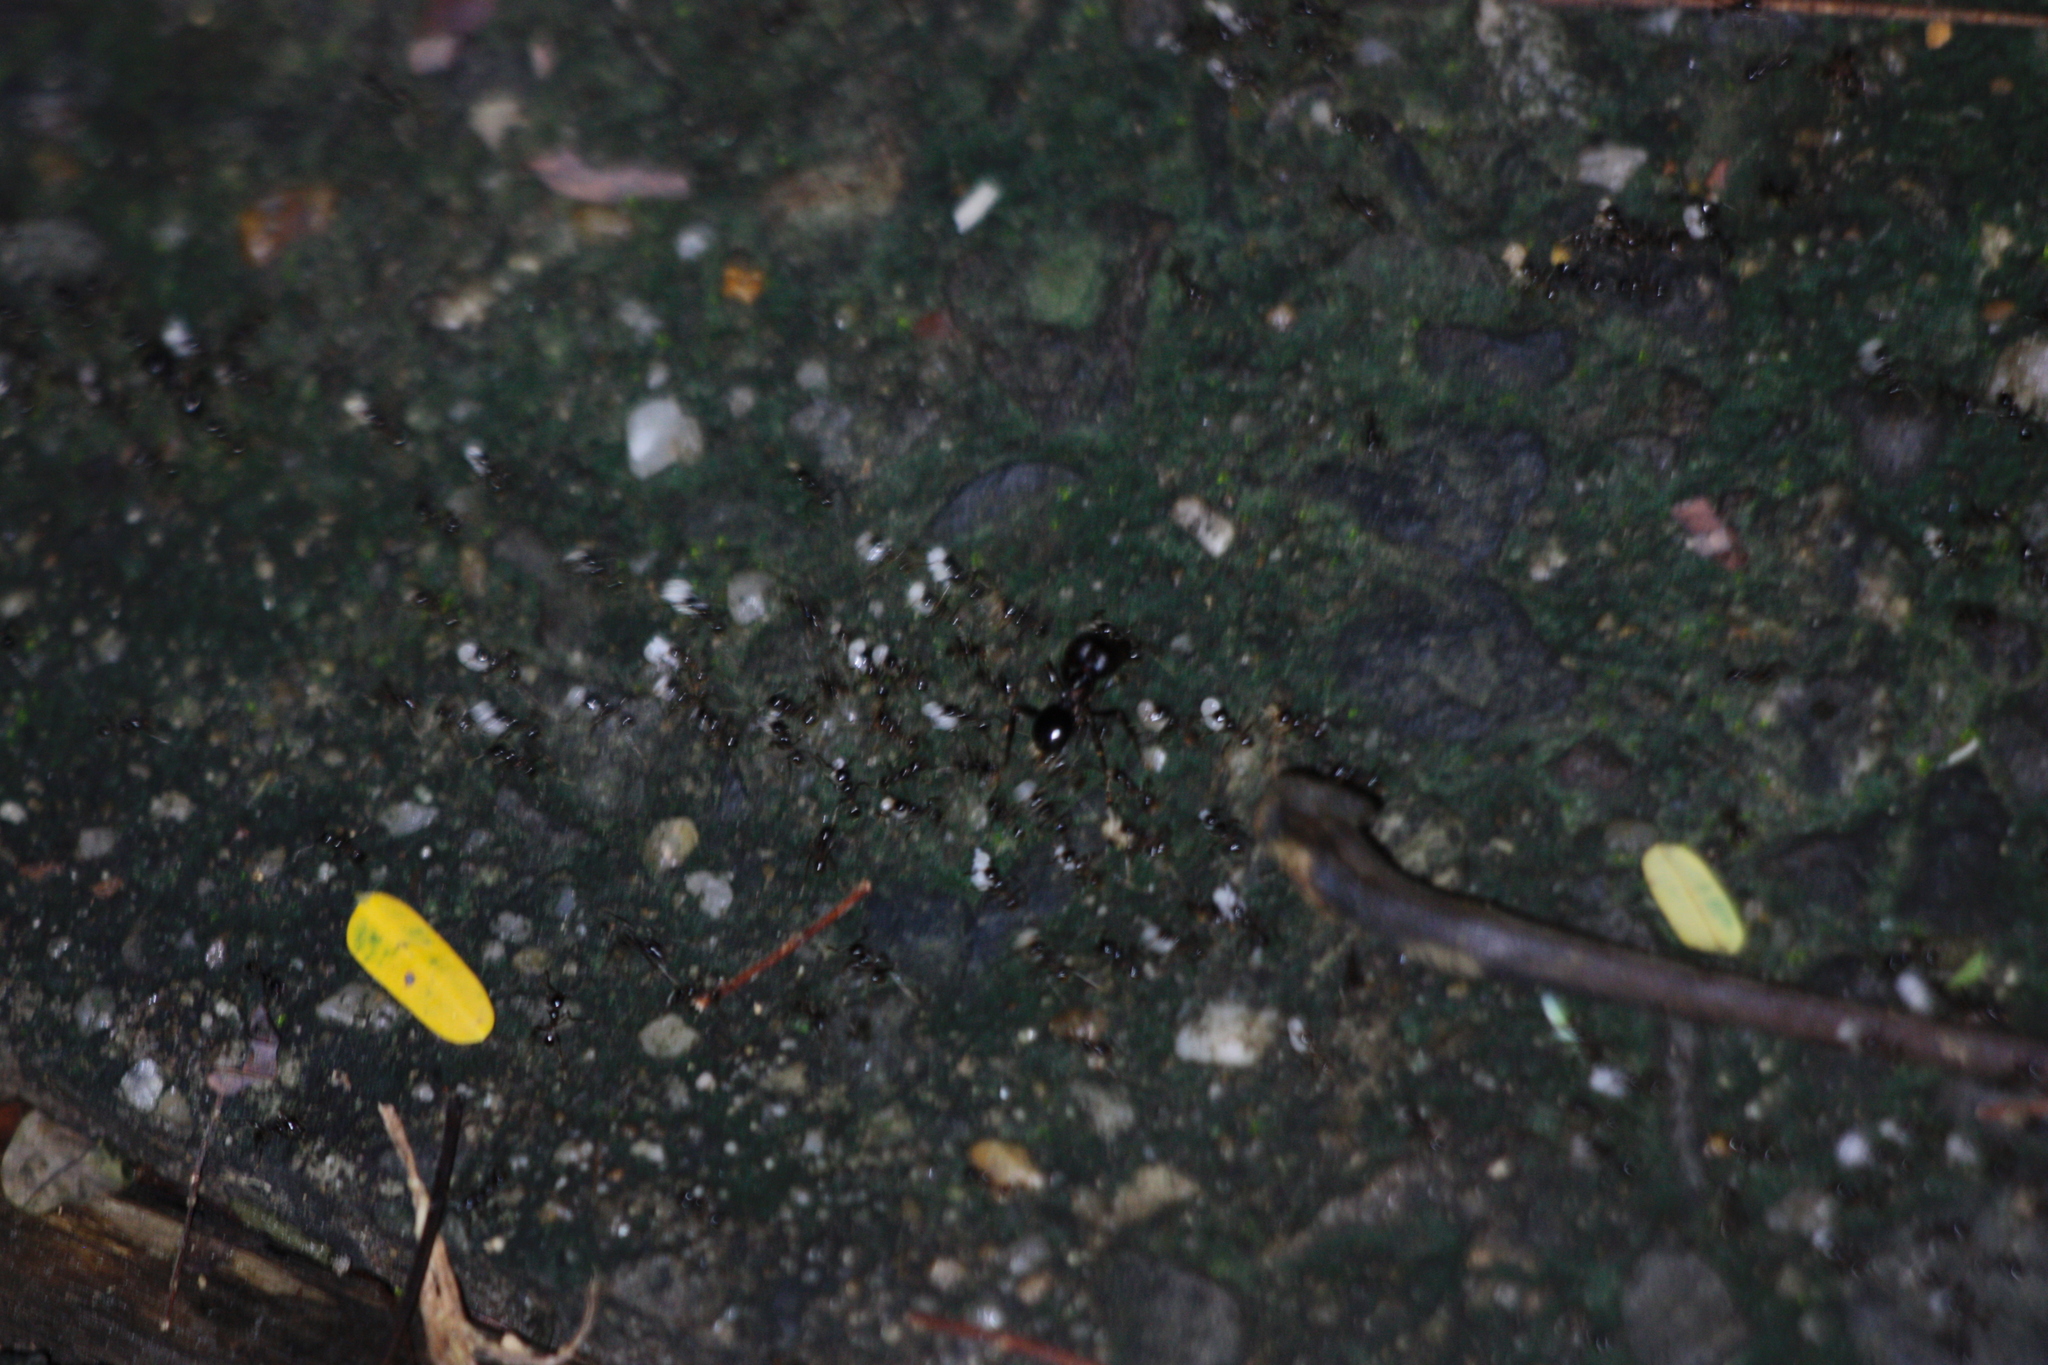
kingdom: Animalia
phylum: Arthropoda
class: Insecta
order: Hymenoptera
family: Formicidae
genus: Pheidologeton
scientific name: Pheidologeton diversus
